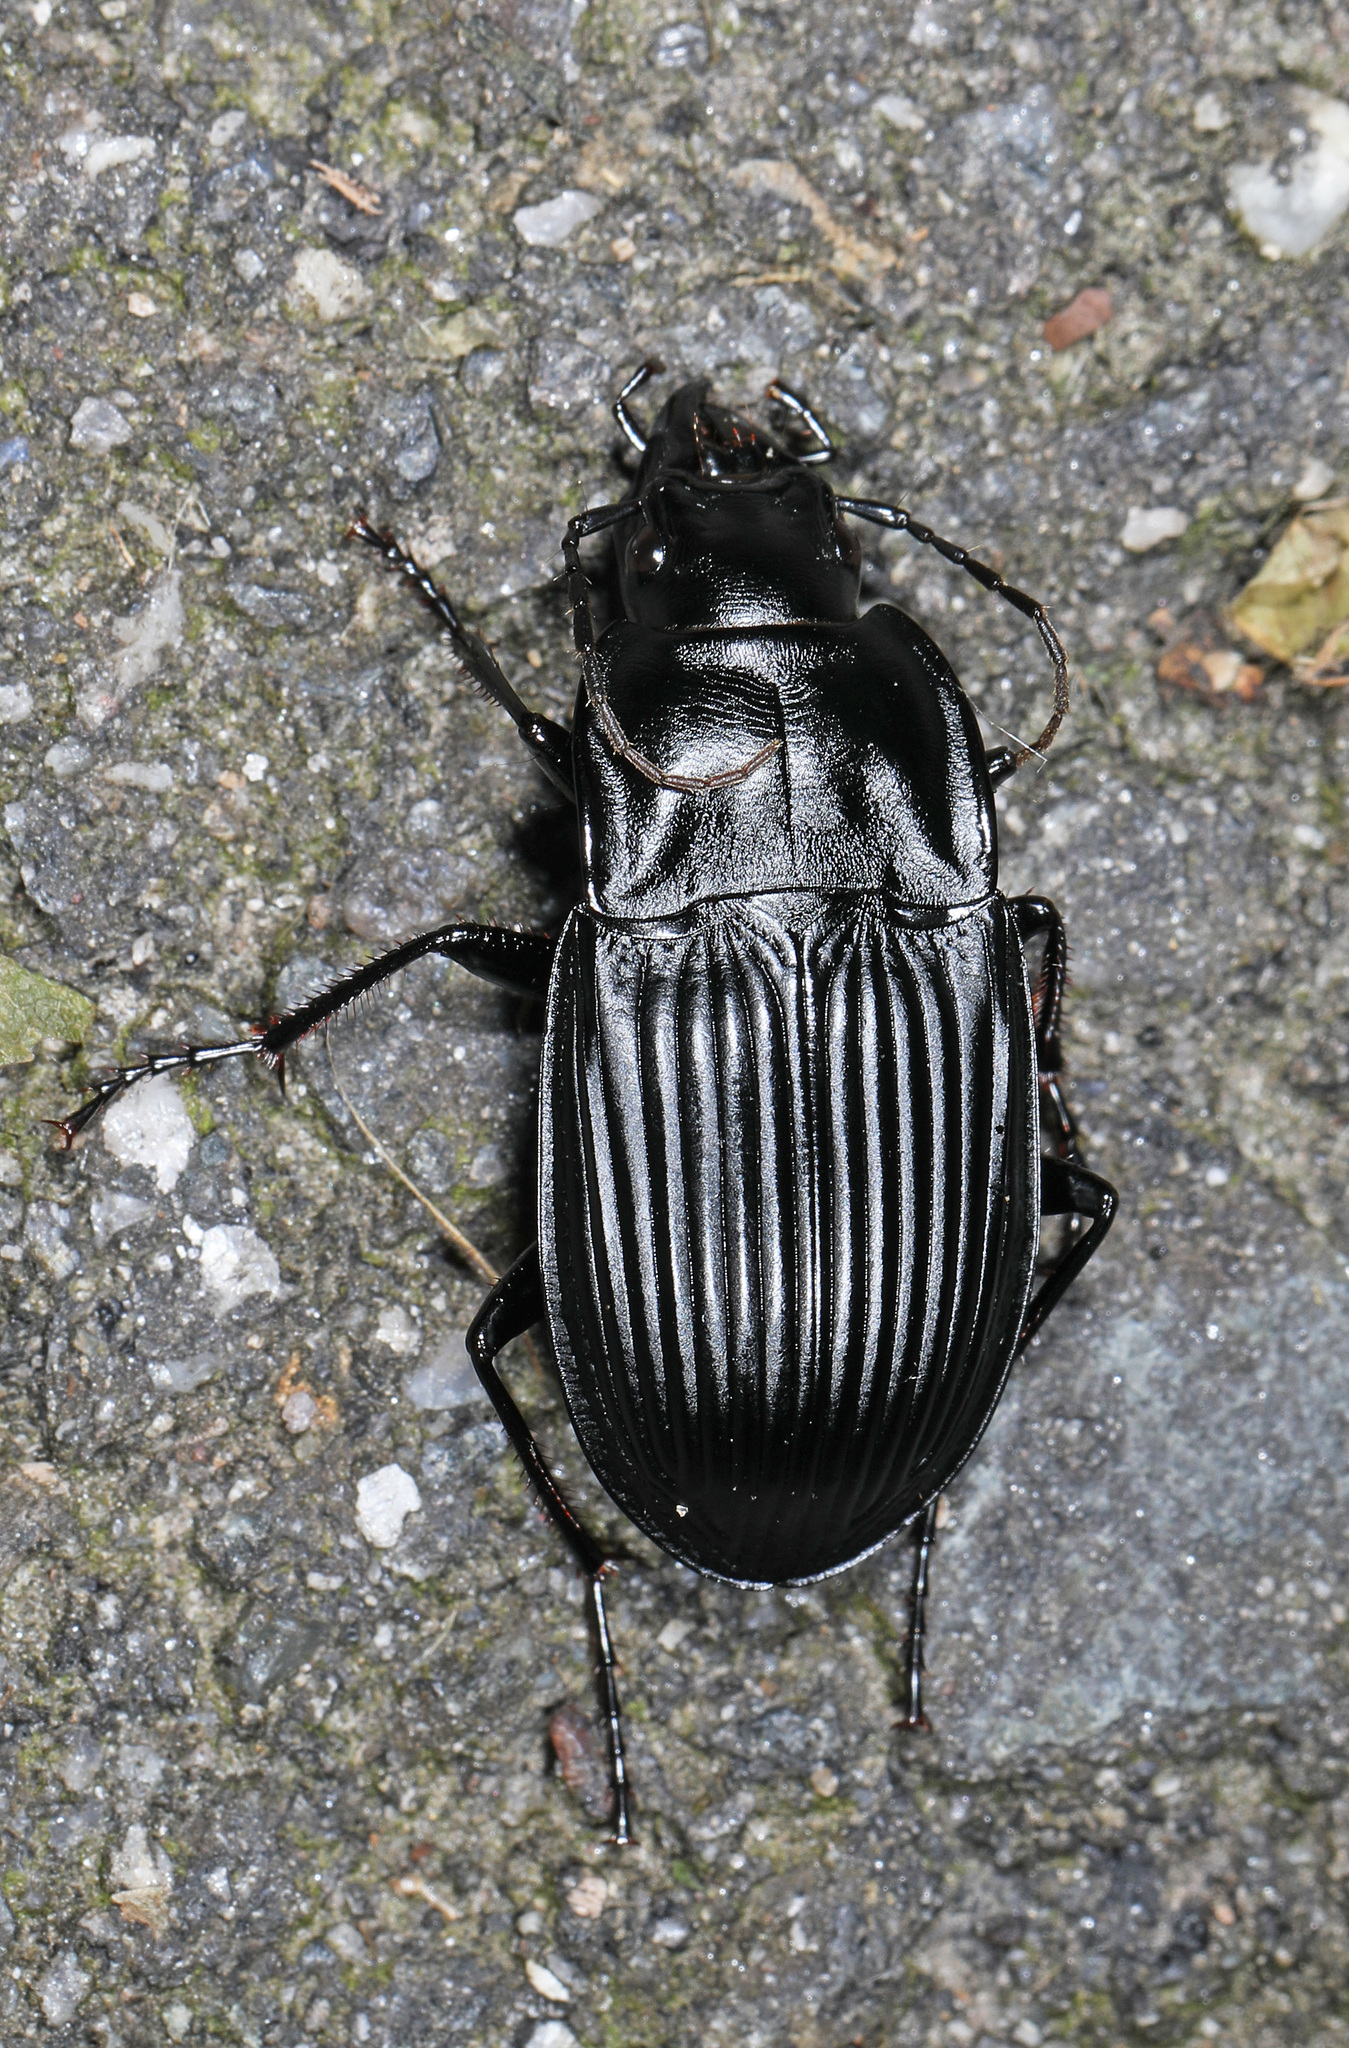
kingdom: Animalia
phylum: Arthropoda
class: Insecta
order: Coleoptera
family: Carabidae
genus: Dicaelus
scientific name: Dicaelus dilatatus
